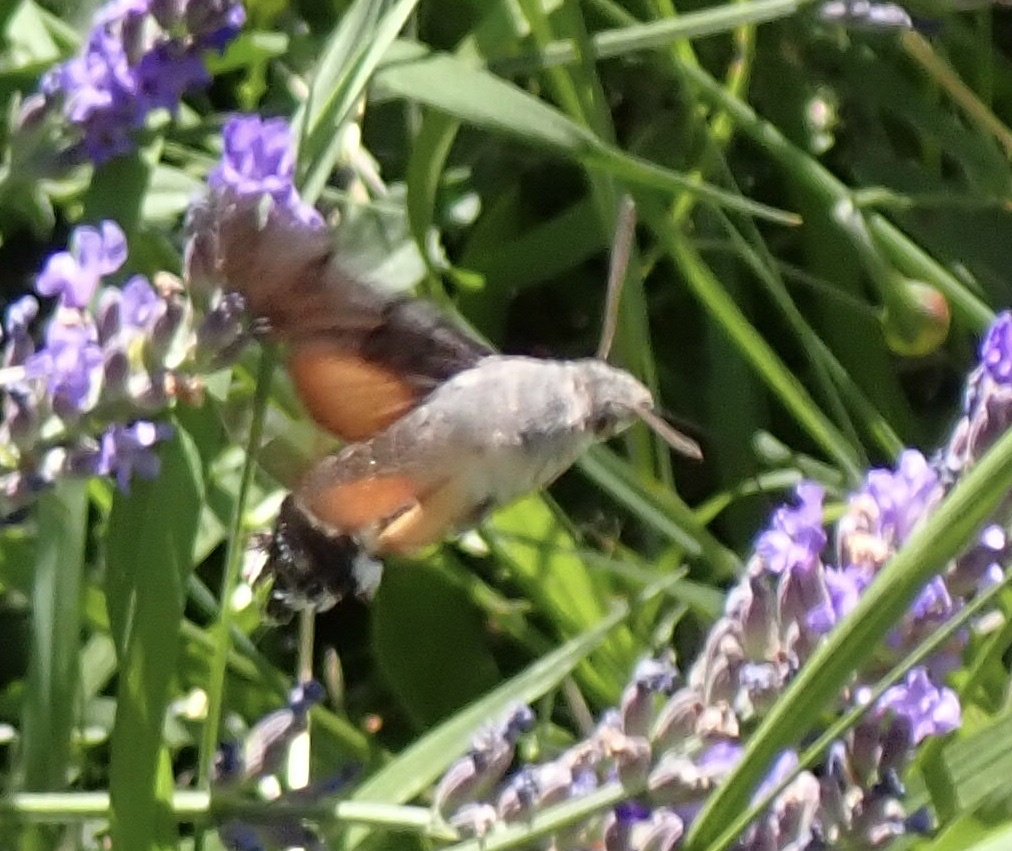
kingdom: Animalia
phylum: Arthropoda
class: Insecta
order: Lepidoptera
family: Sphingidae
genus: Macroglossum
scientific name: Macroglossum stellatarum
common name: Humming-bird hawk-moth
